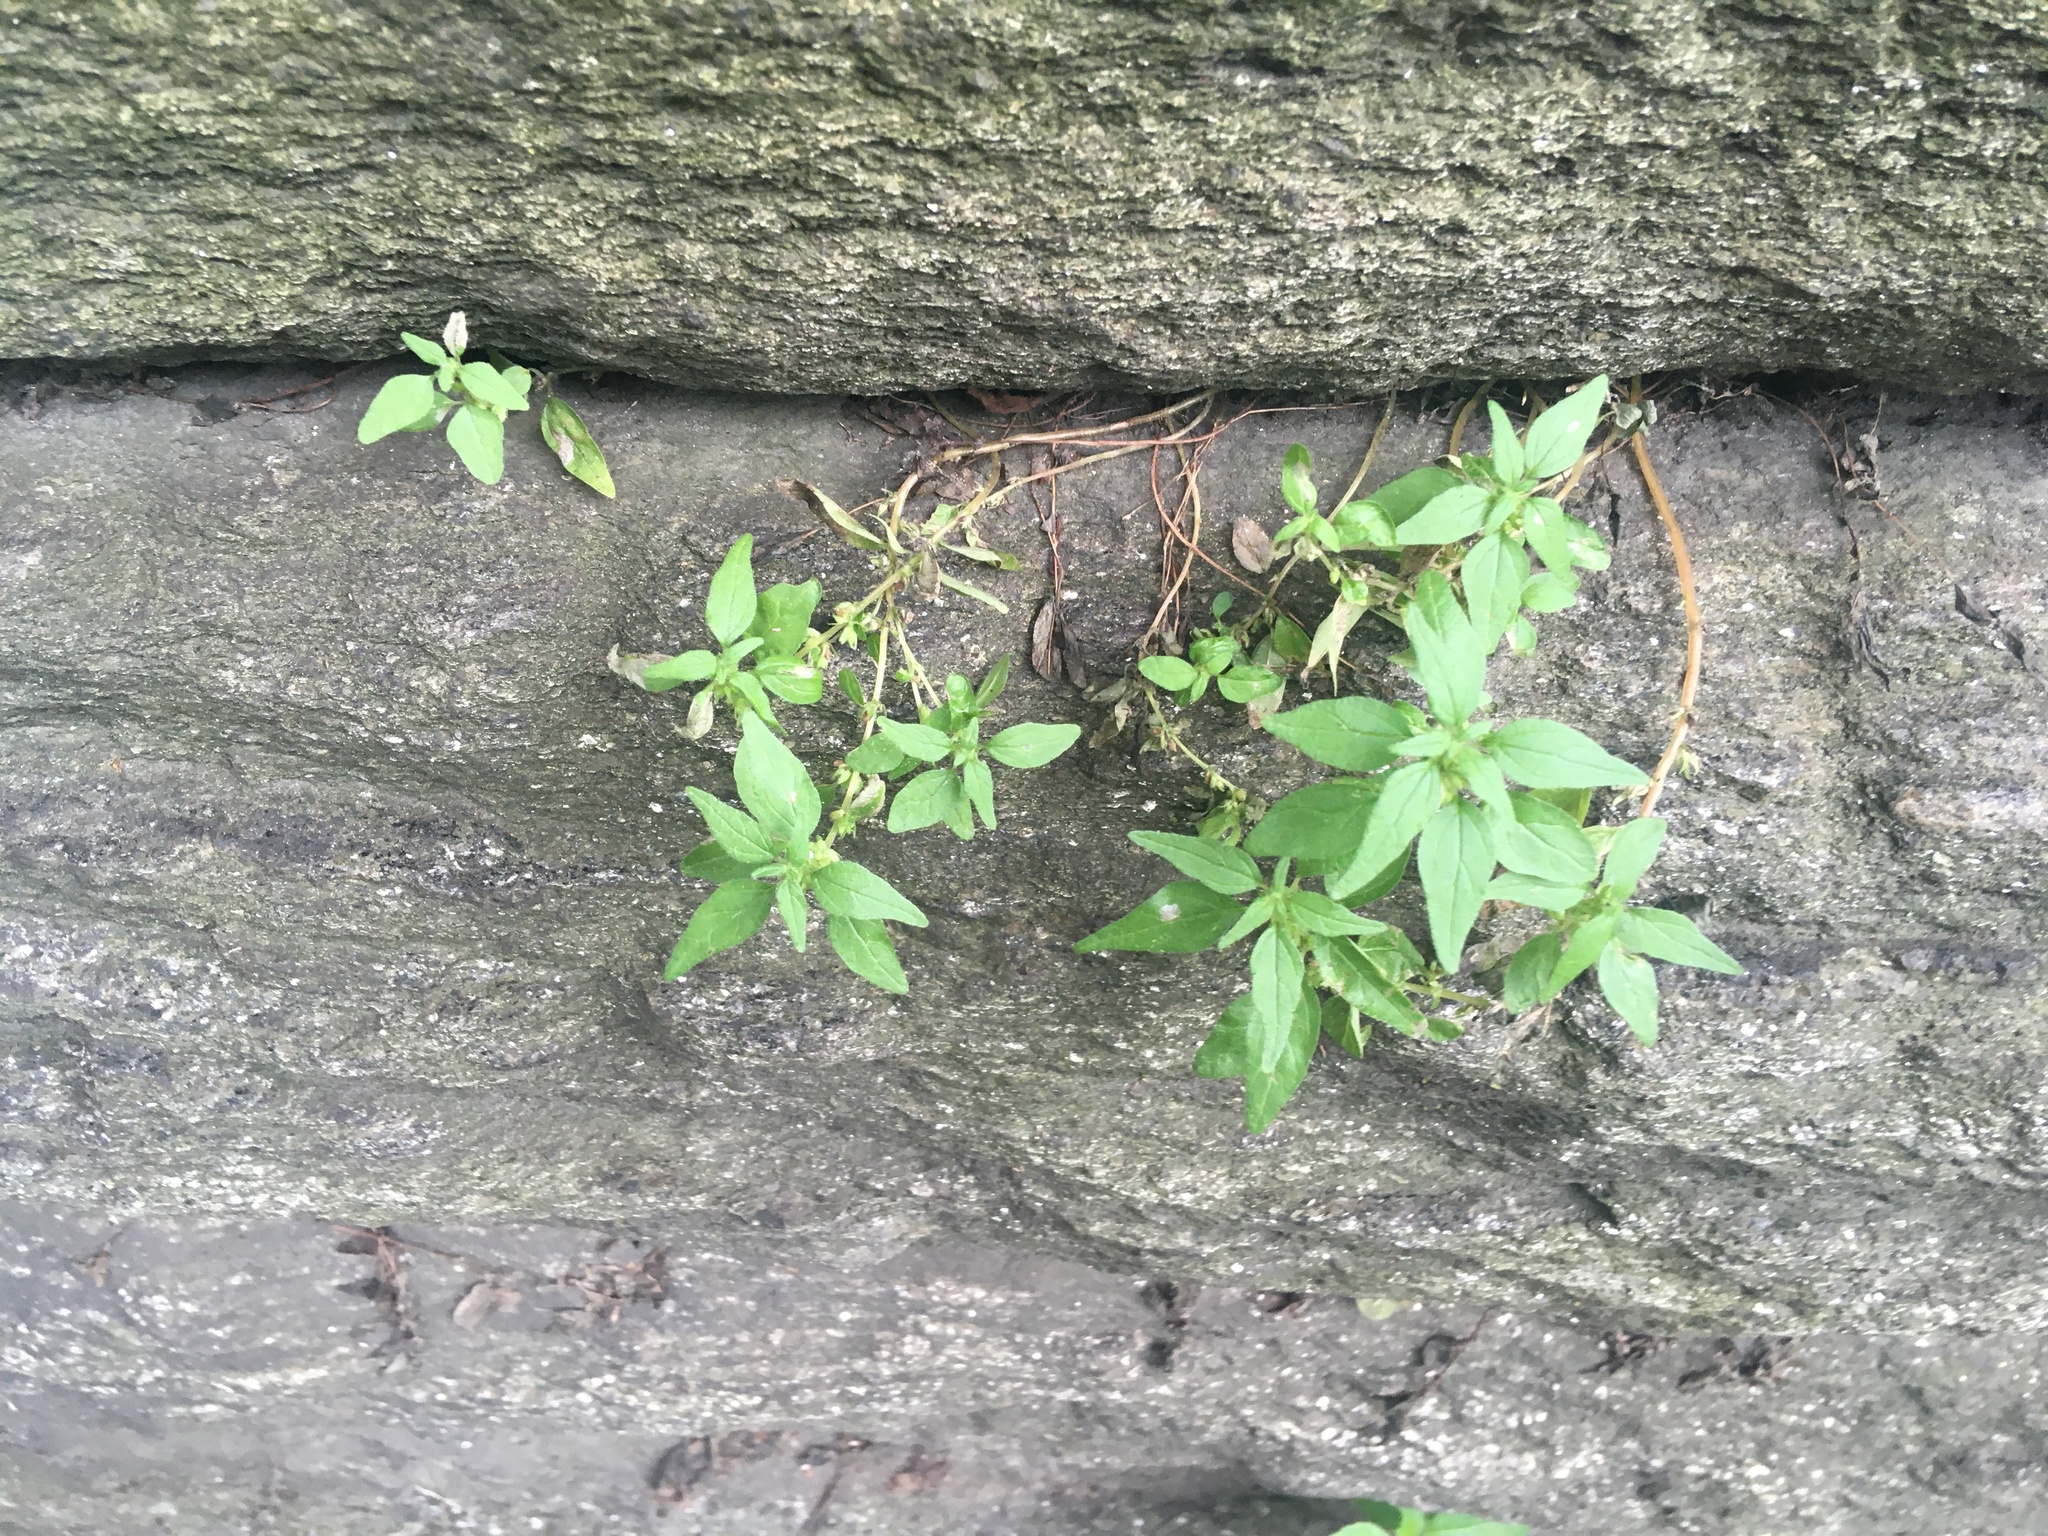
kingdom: Plantae
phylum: Tracheophyta
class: Magnoliopsida
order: Rosales
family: Urticaceae
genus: Parietaria
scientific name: Parietaria pensylvanica
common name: Pennsylvania pellitory
